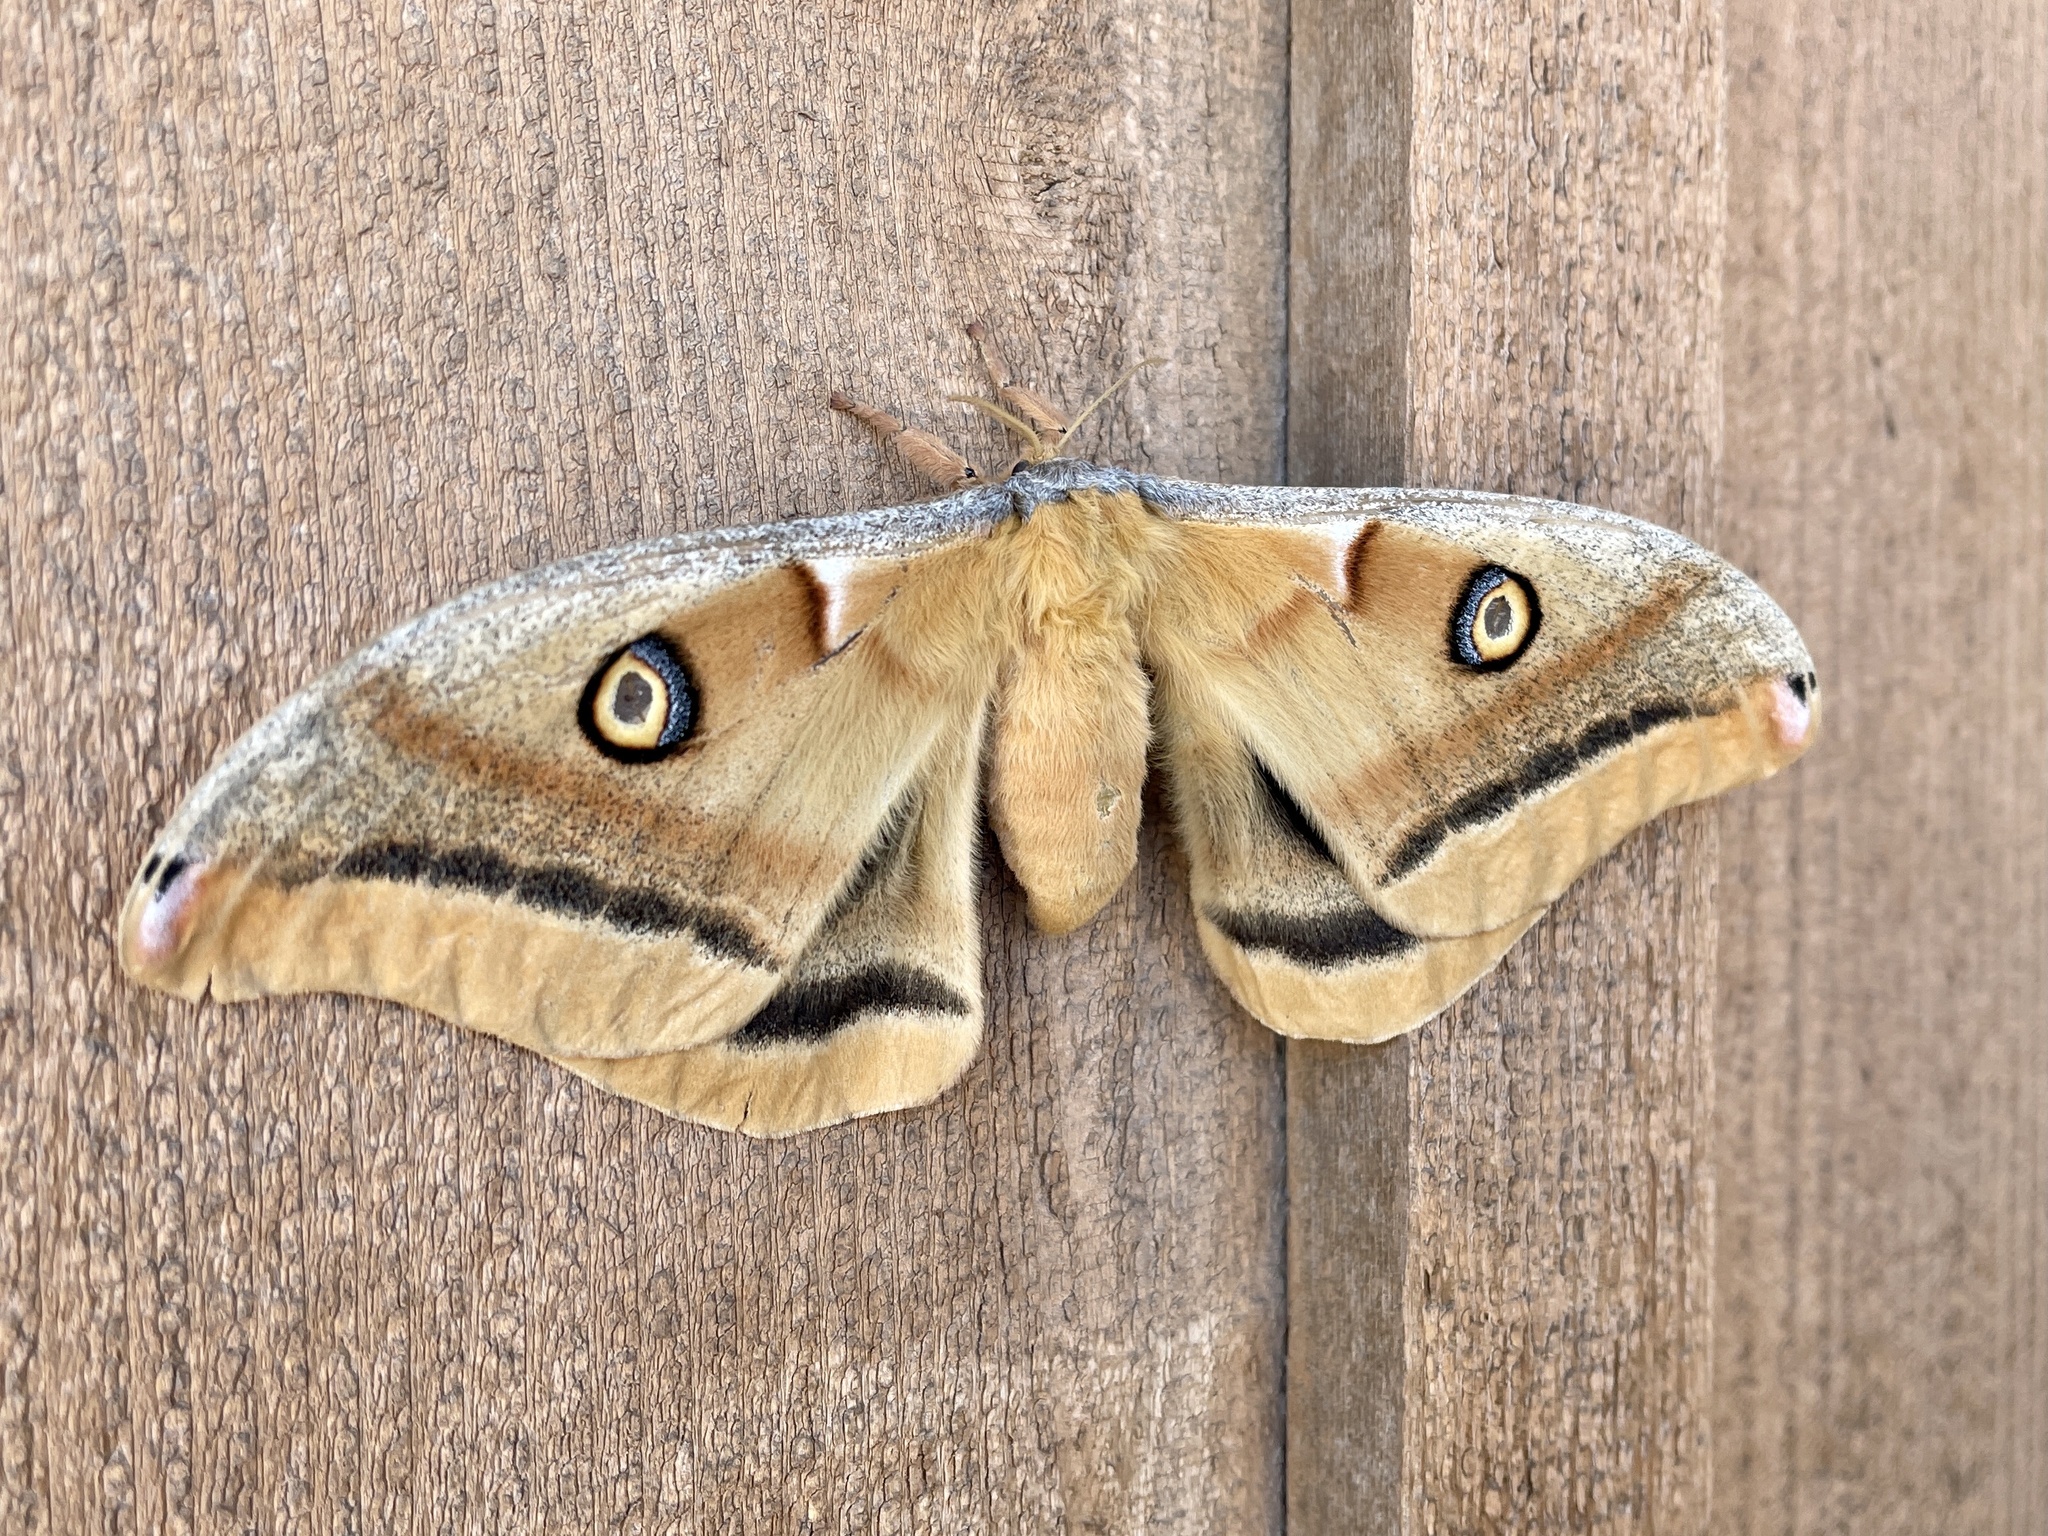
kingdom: Animalia
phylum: Arthropoda
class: Insecta
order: Lepidoptera
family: Saturniidae
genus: Antheraea
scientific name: Antheraea oculea
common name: Arizona polyphemus moth
